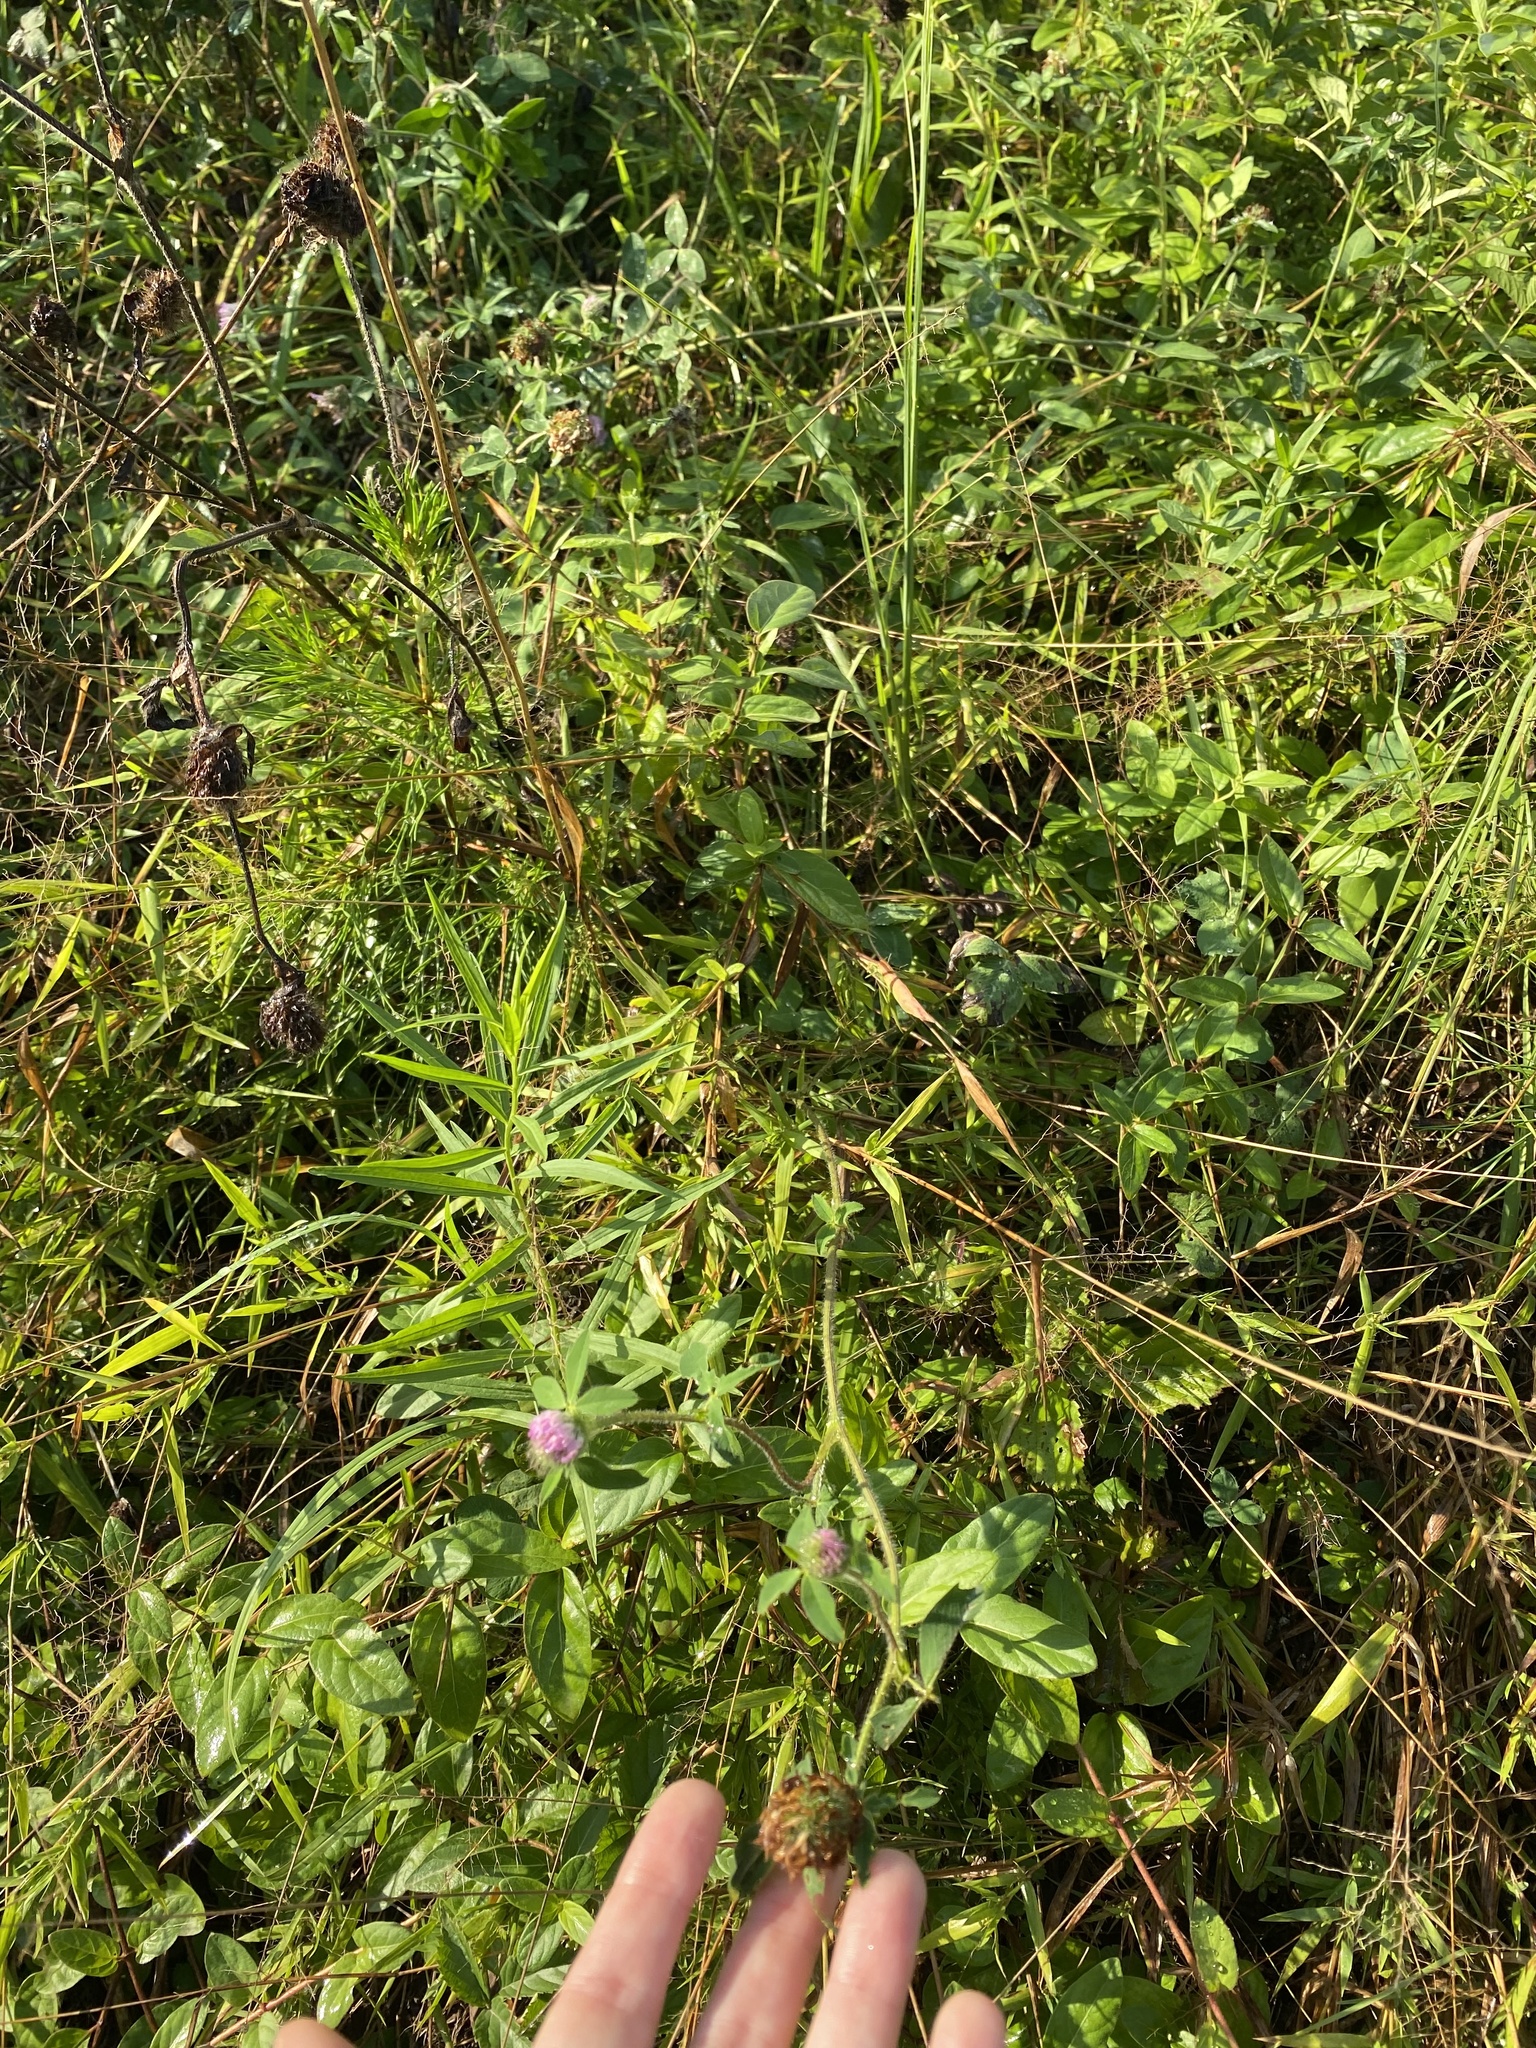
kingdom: Plantae
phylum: Tracheophyta
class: Magnoliopsida
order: Fabales
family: Fabaceae
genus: Trifolium
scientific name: Trifolium pratense
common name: Red clover
